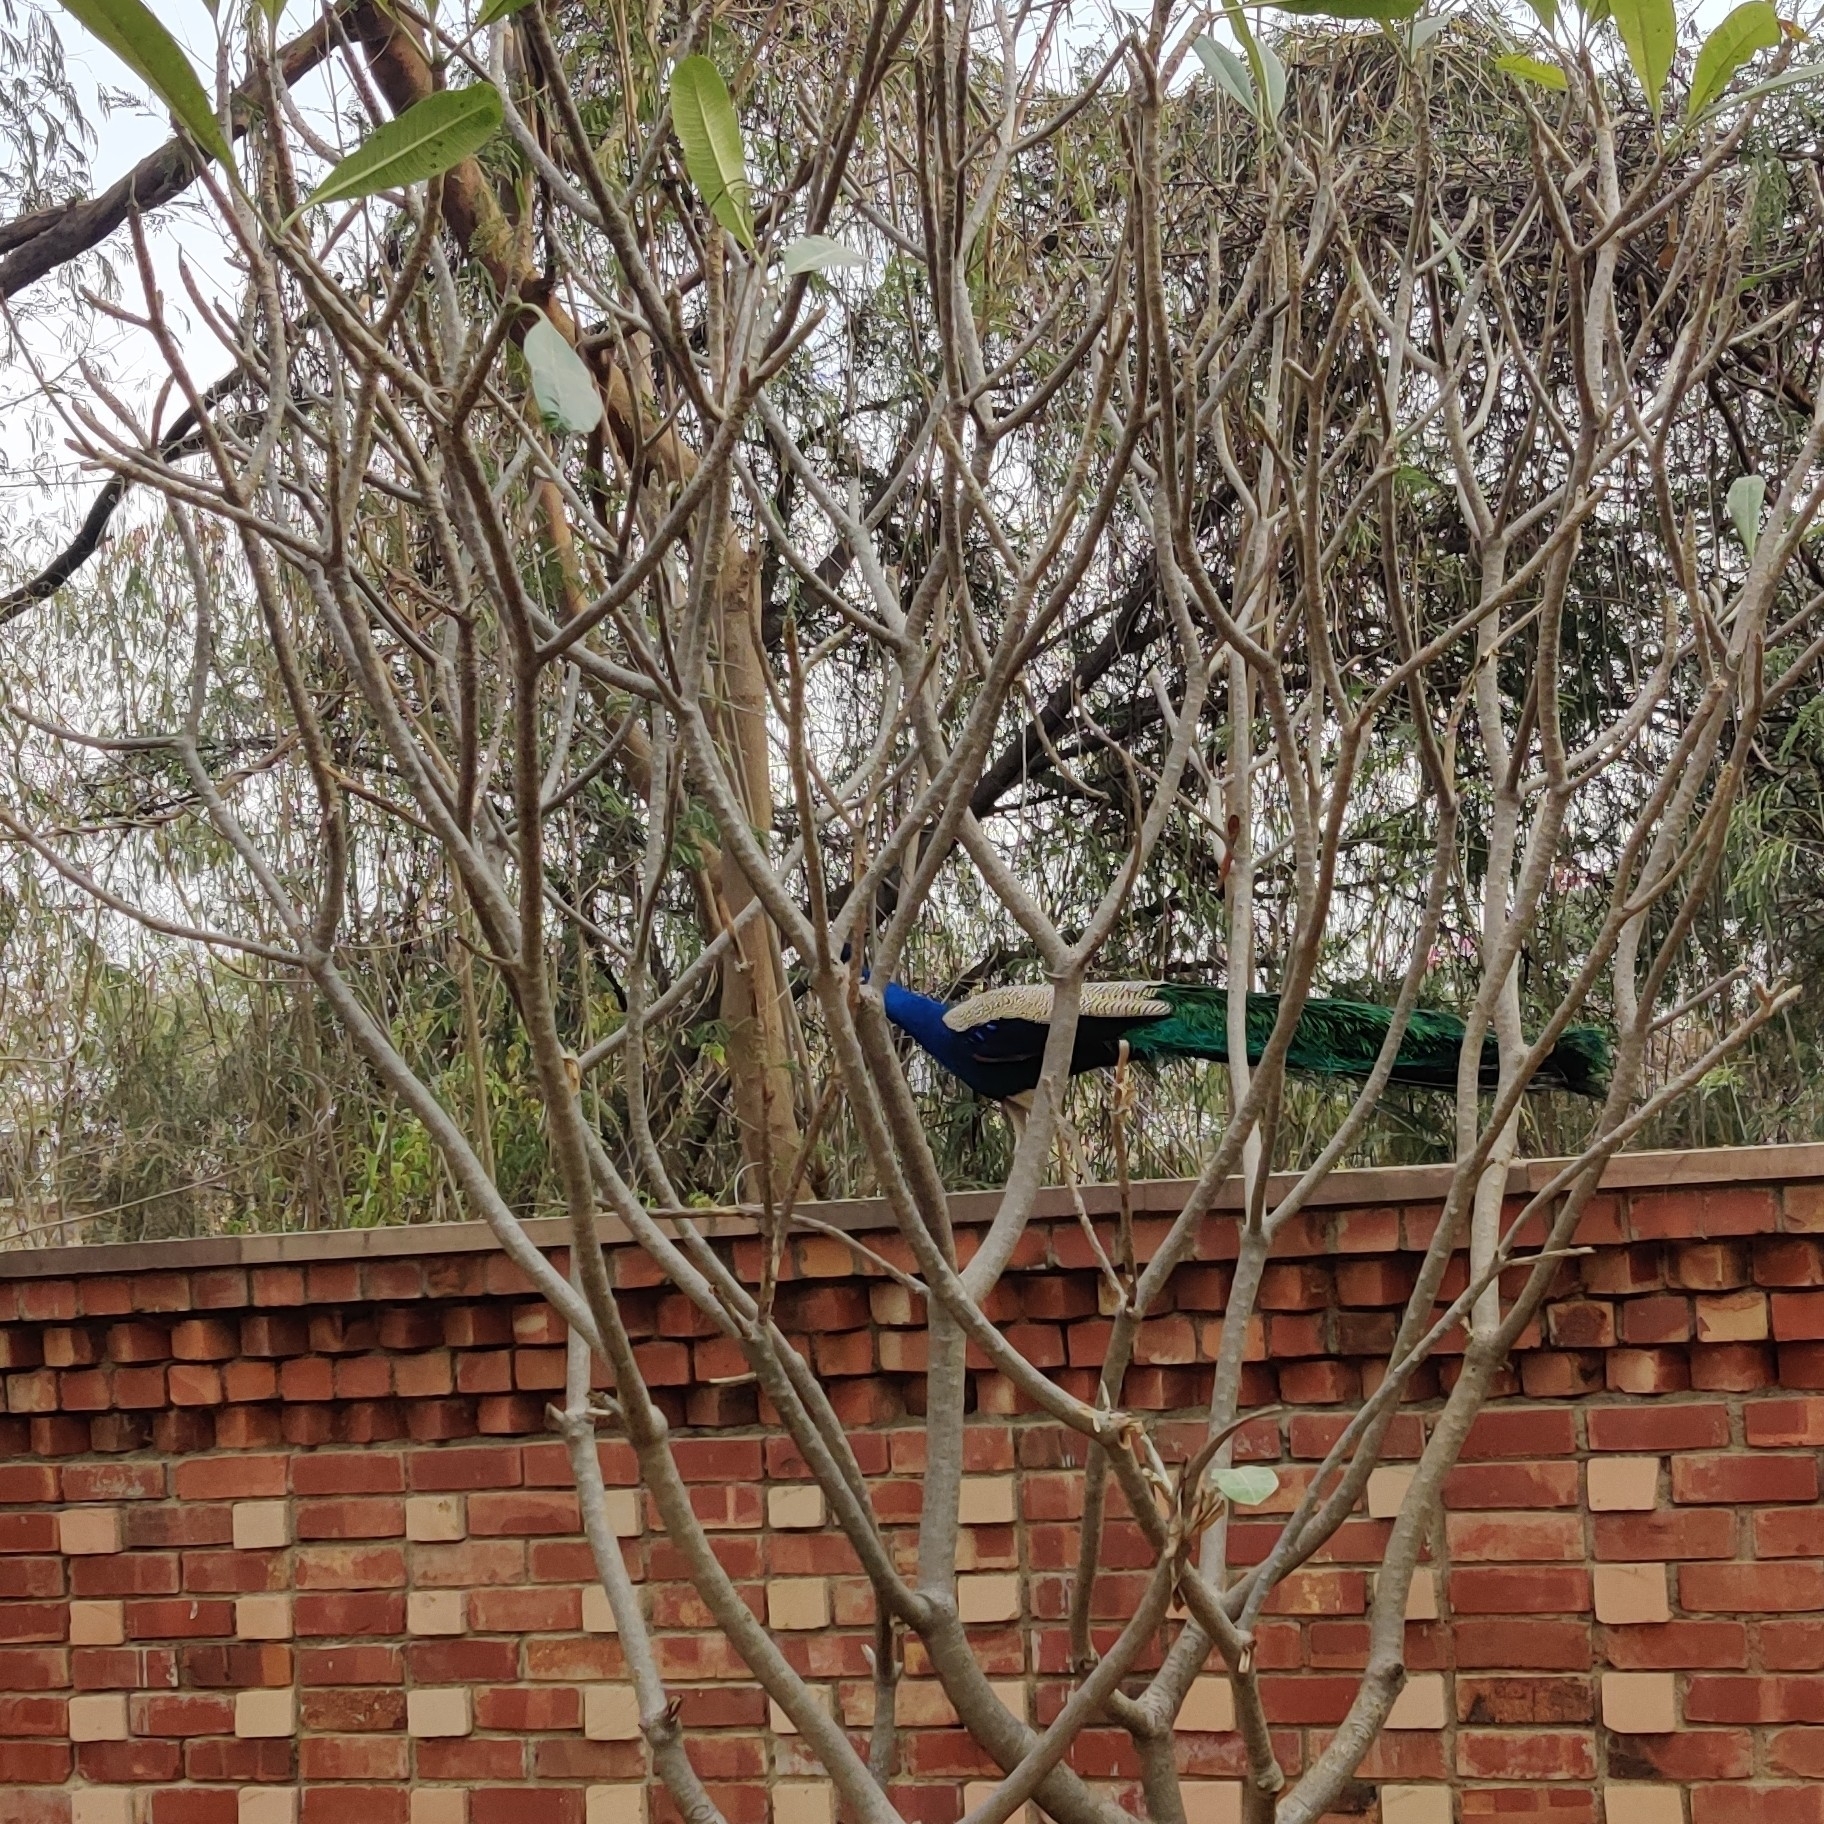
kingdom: Animalia
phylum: Chordata
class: Aves
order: Galliformes
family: Phasianidae
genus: Pavo
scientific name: Pavo cristatus
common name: Indian peafowl
